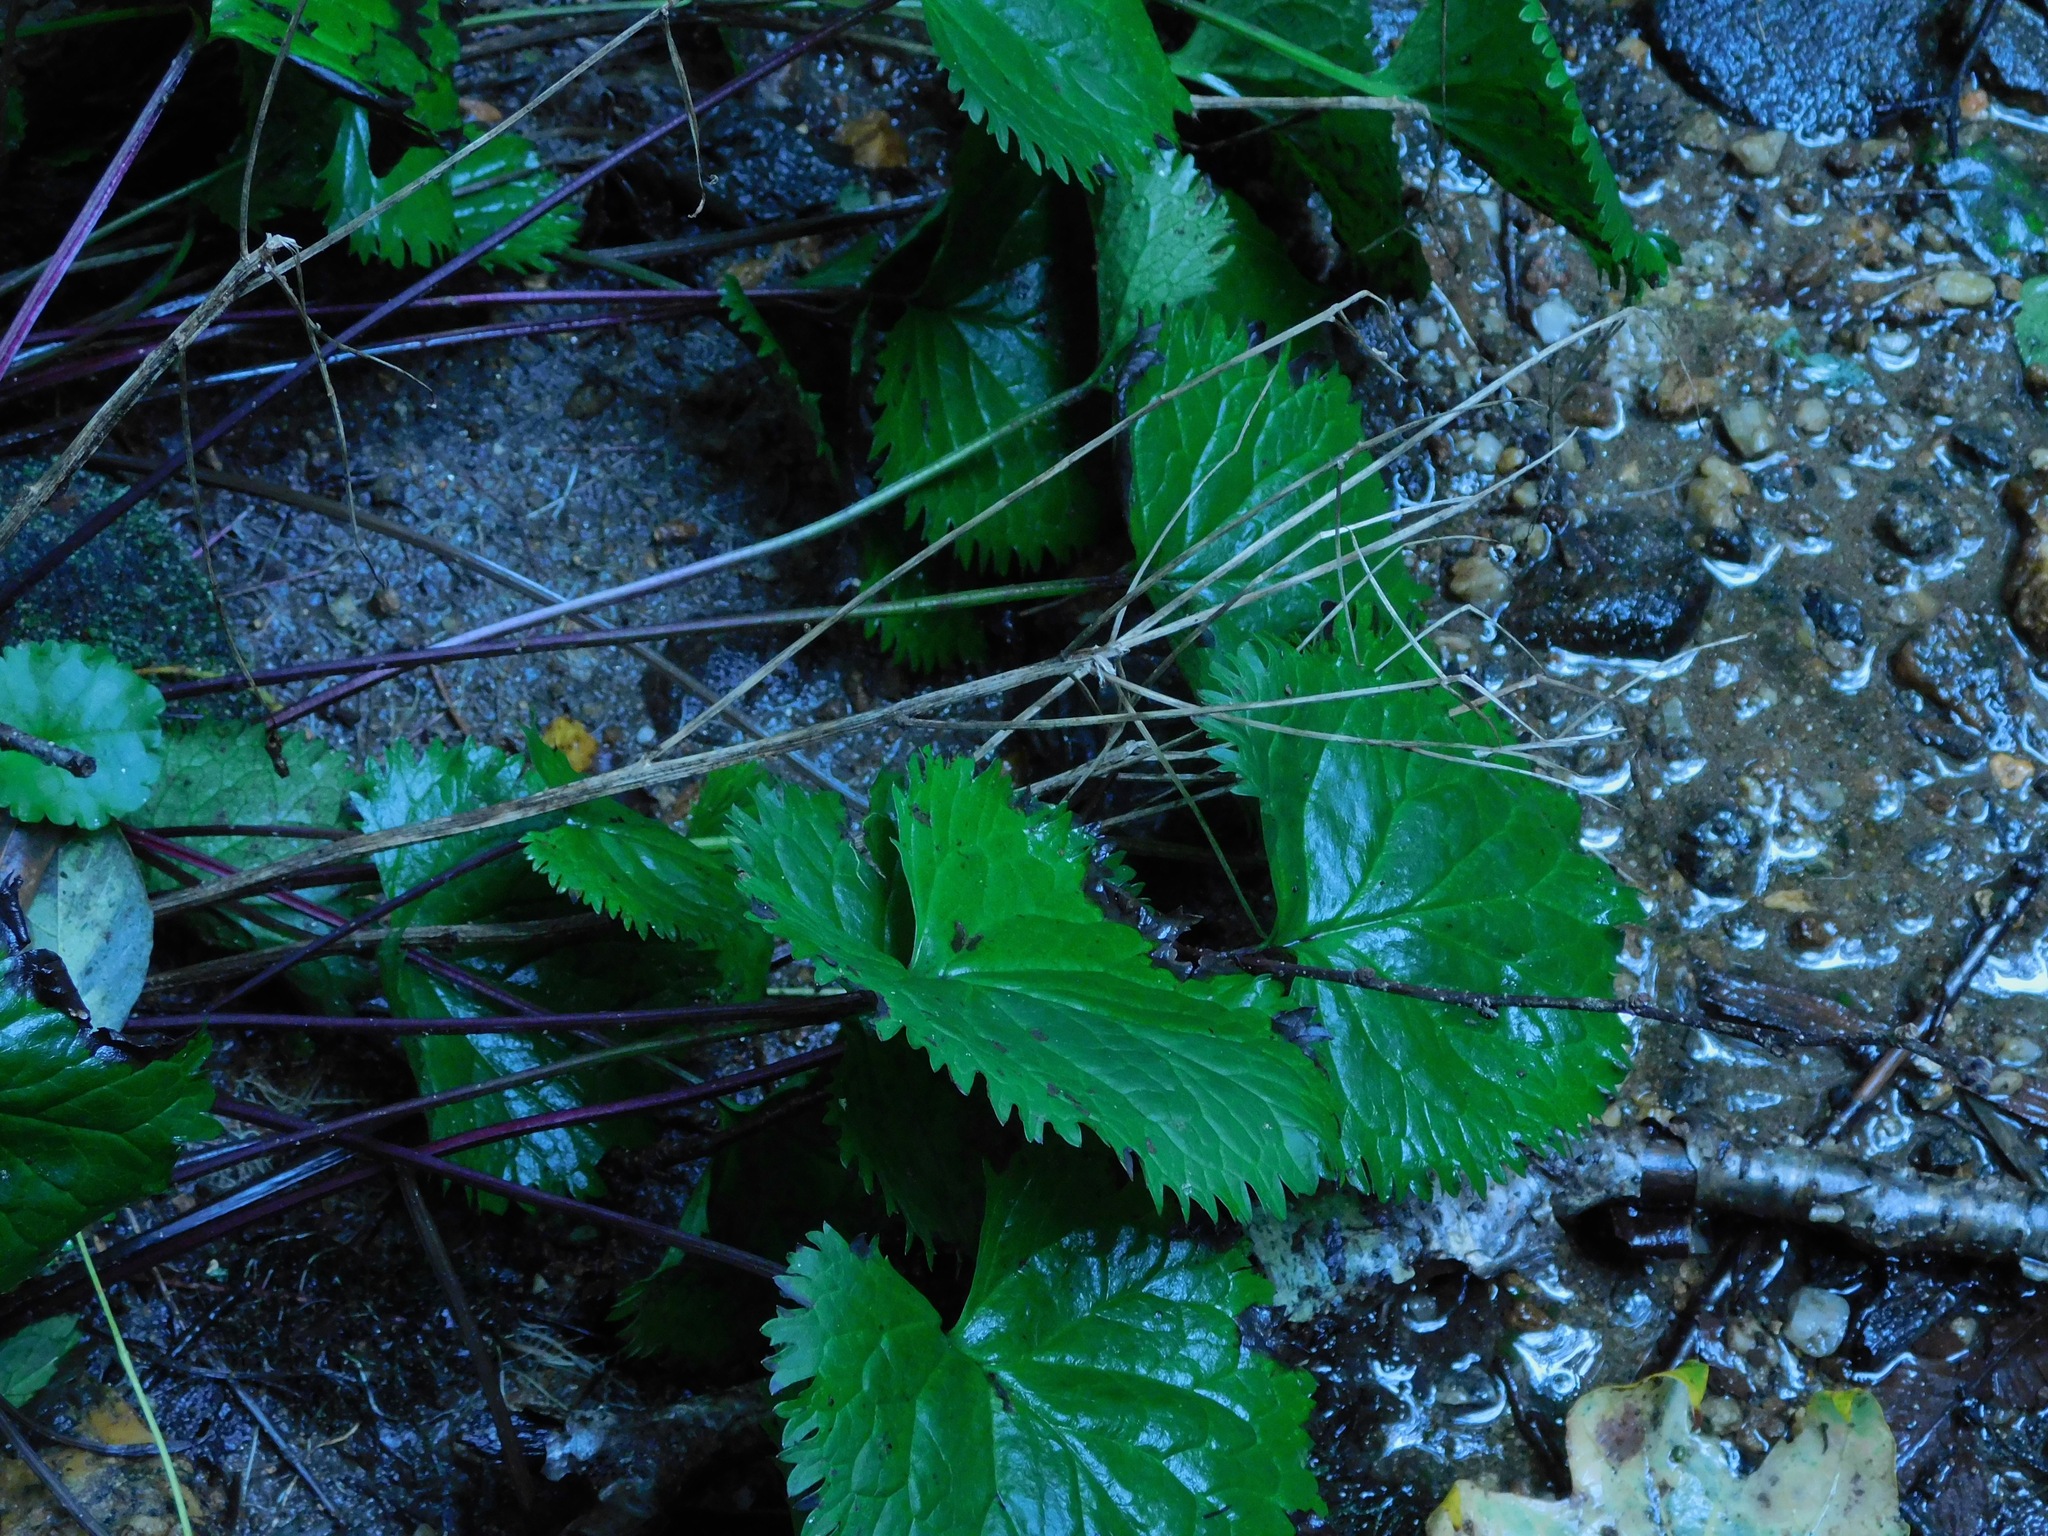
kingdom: Plantae
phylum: Tracheophyta
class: Magnoliopsida
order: Asterales
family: Asteraceae
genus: Packera
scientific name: Packera aurea
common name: Golden groundsel
